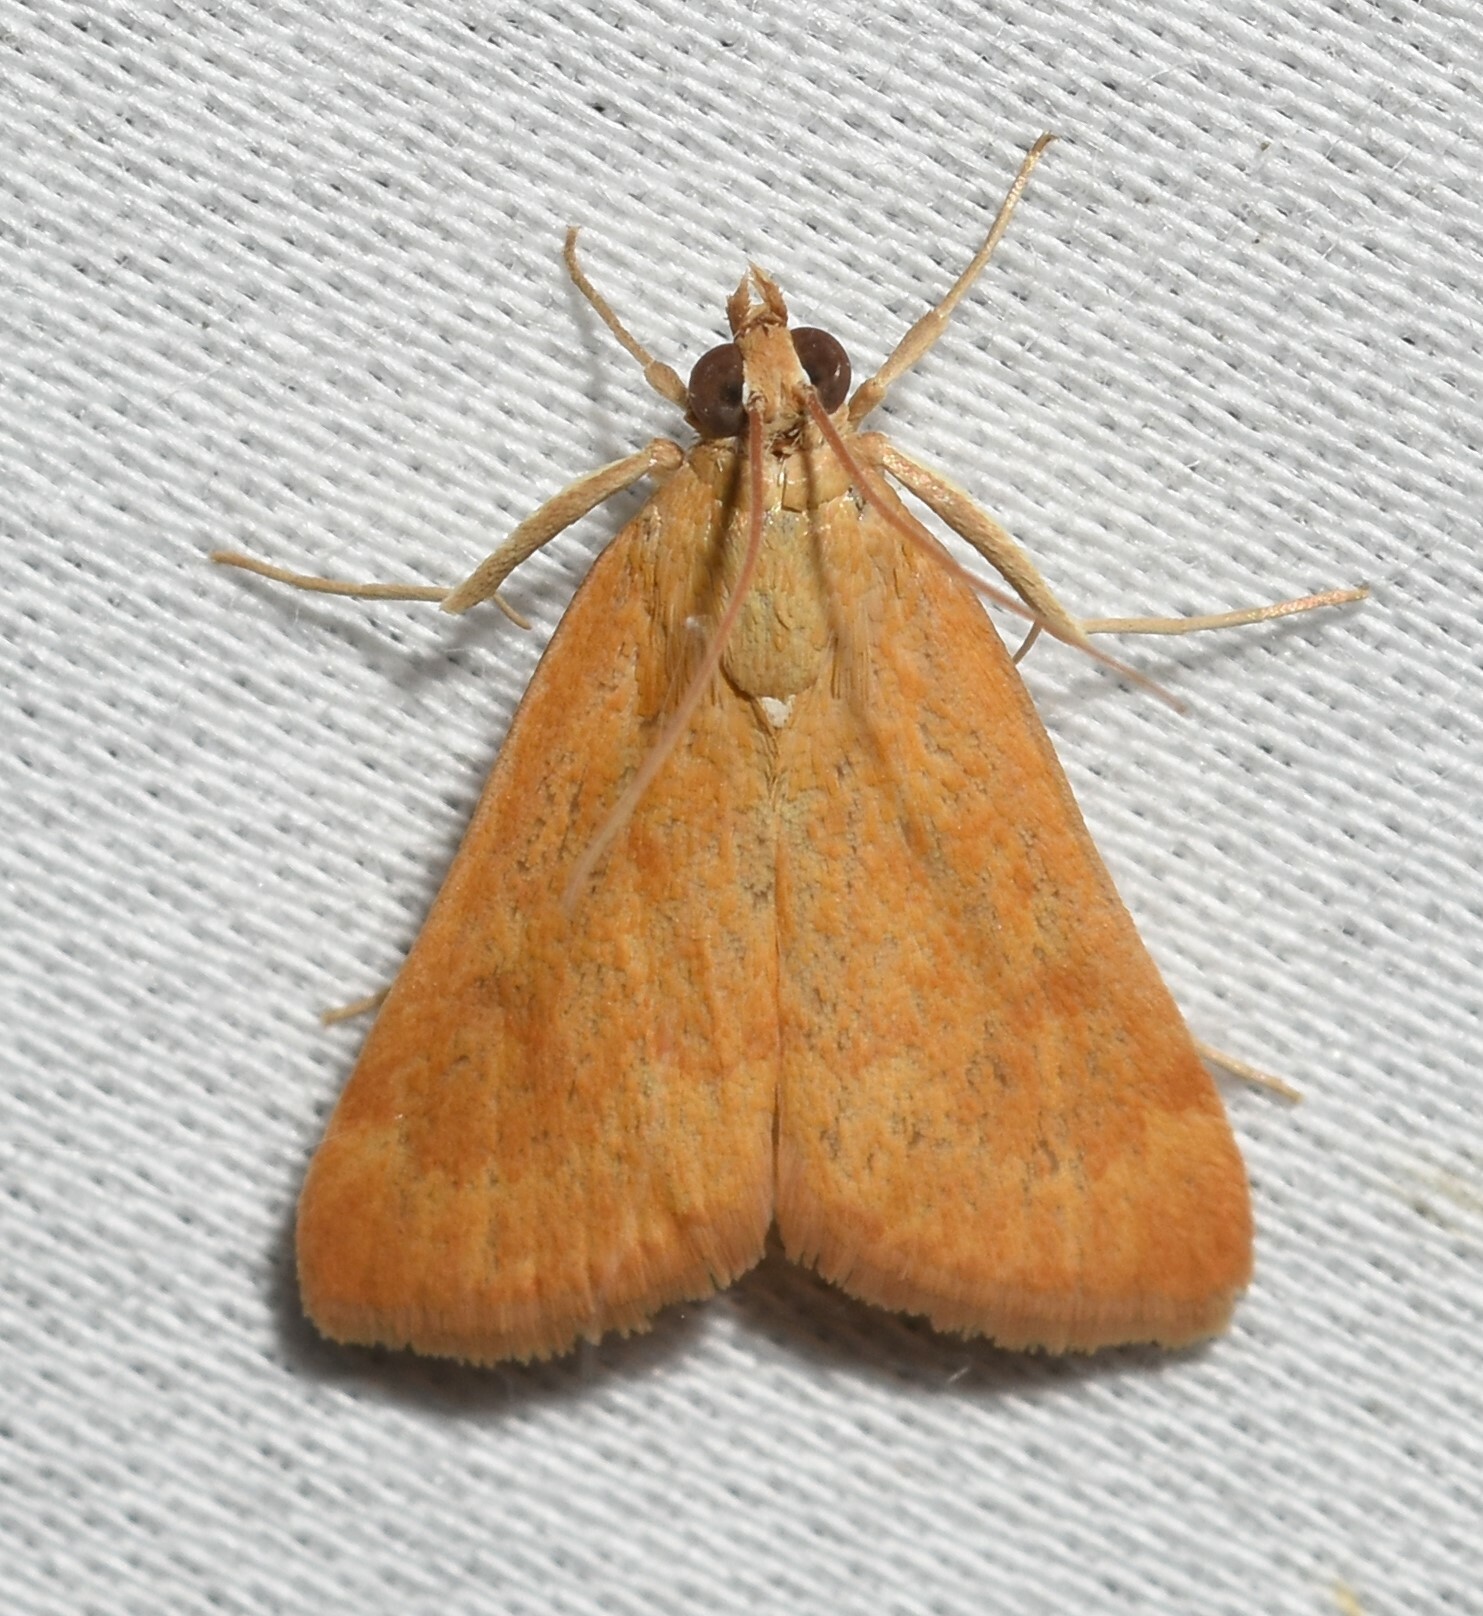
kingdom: Animalia
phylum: Arthropoda
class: Insecta
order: Lepidoptera
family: Crambidae
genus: Achyra
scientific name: Achyra rantalis
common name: Garden webworm
